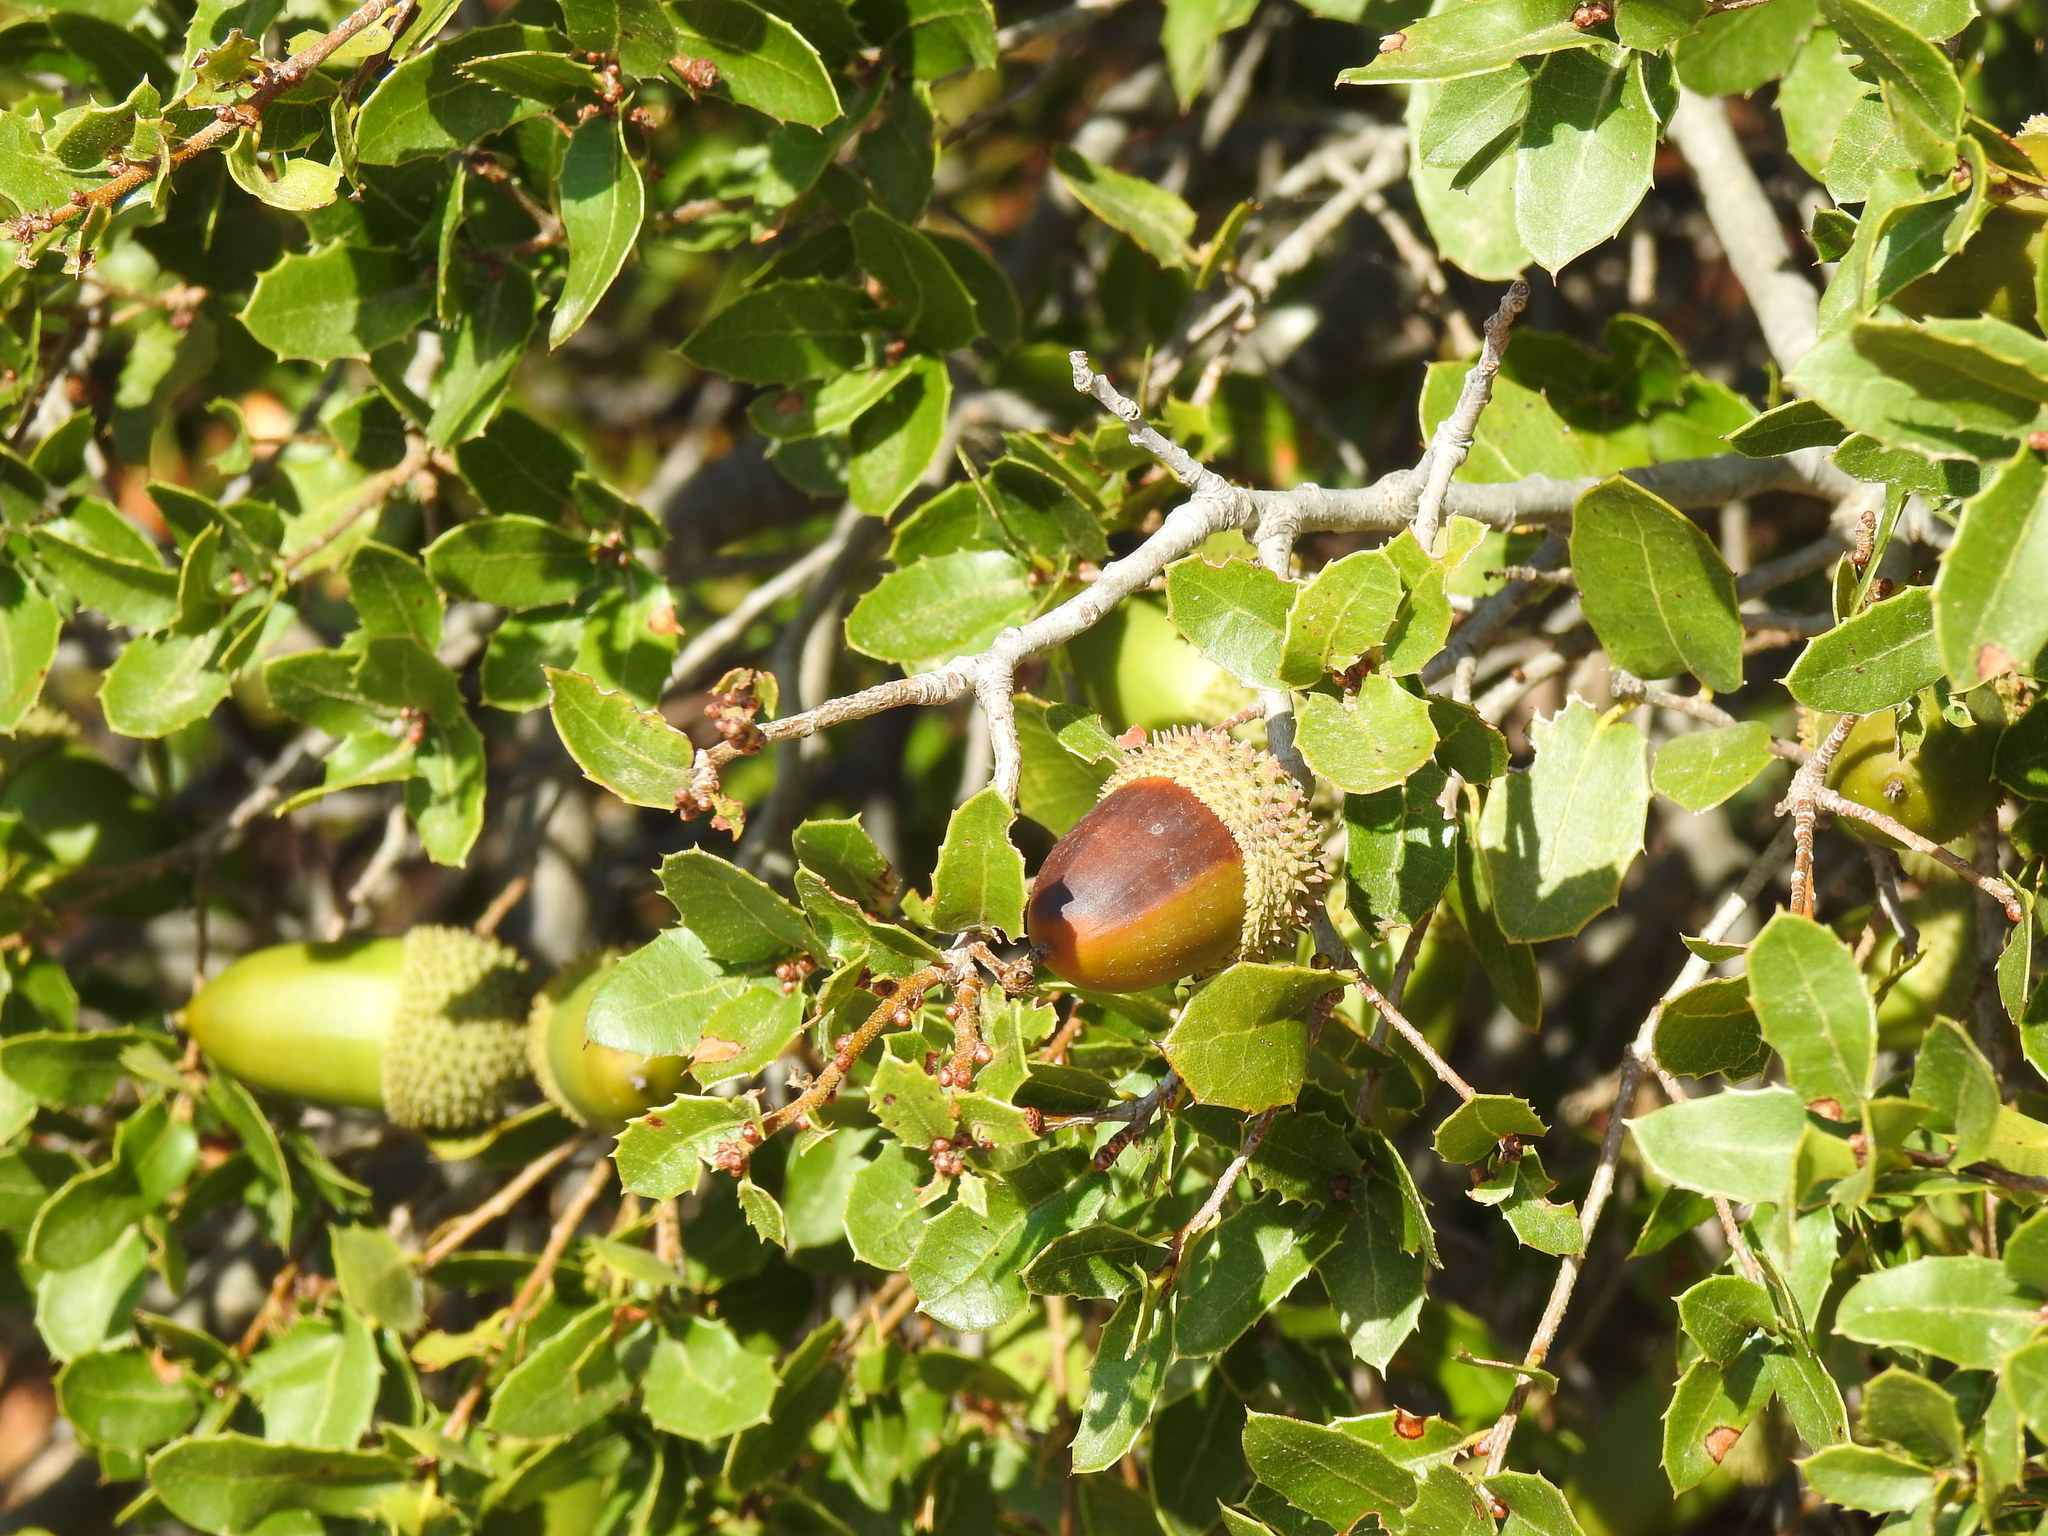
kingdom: Plantae
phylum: Tracheophyta
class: Magnoliopsida
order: Fagales
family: Fagaceae
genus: Quercus
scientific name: Quercus coccifera
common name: Kermes oak
